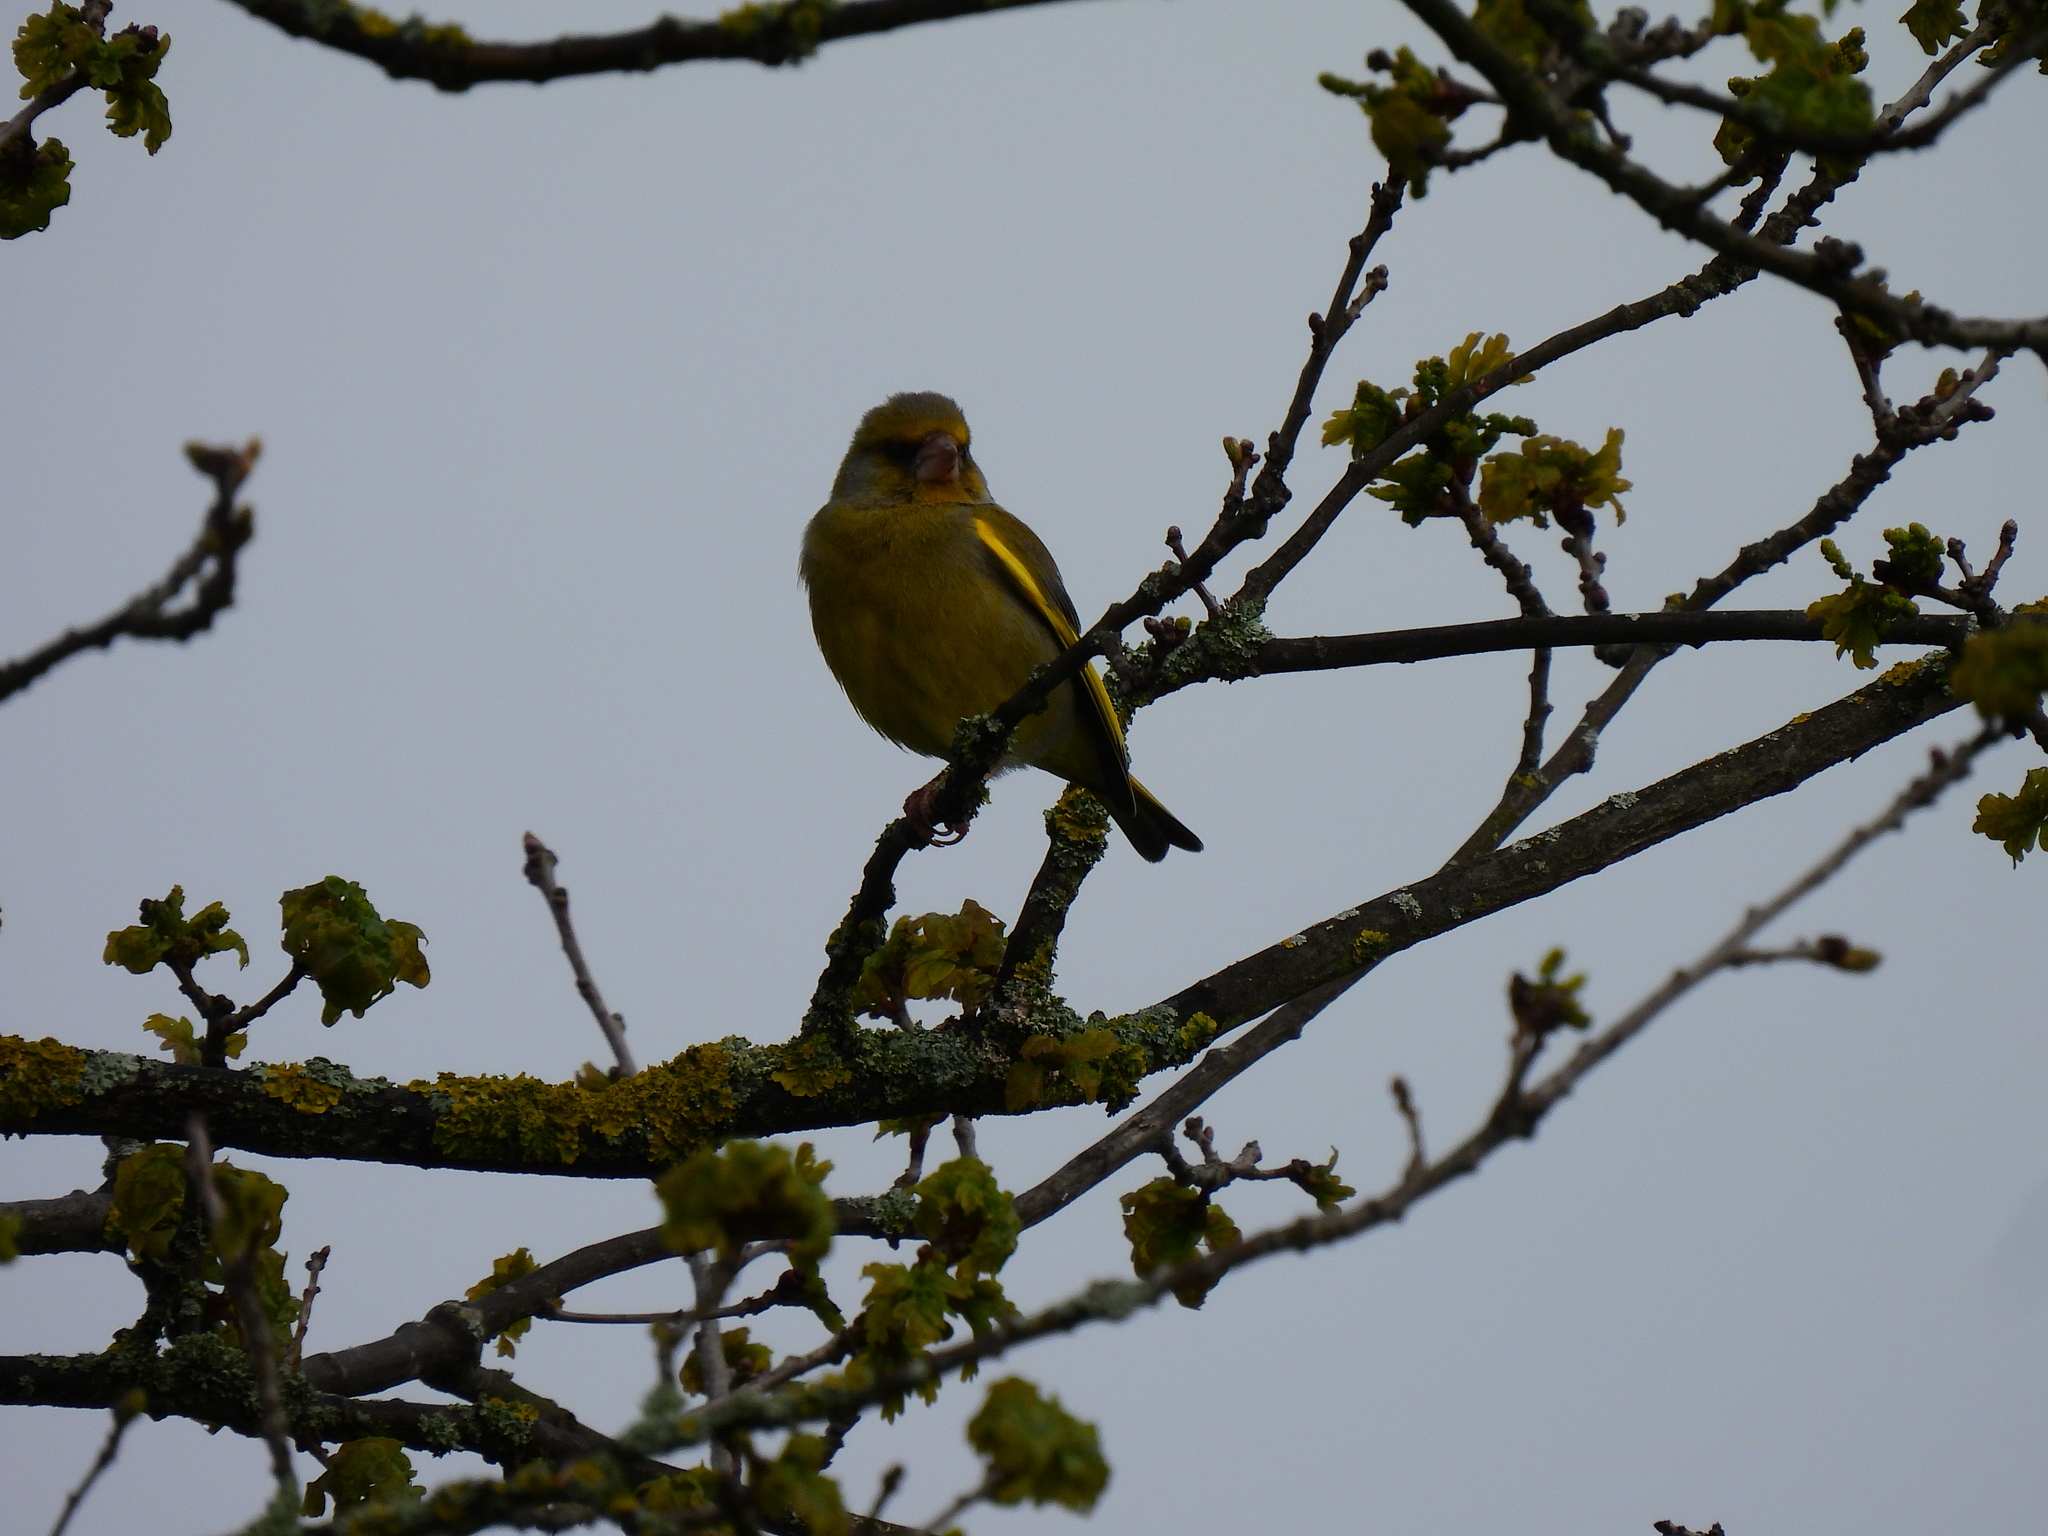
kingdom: Plantae
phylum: Tracheophyta
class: Liliopsida
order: Poales
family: Poaceae
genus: Chloris
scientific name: Chloris chloris
